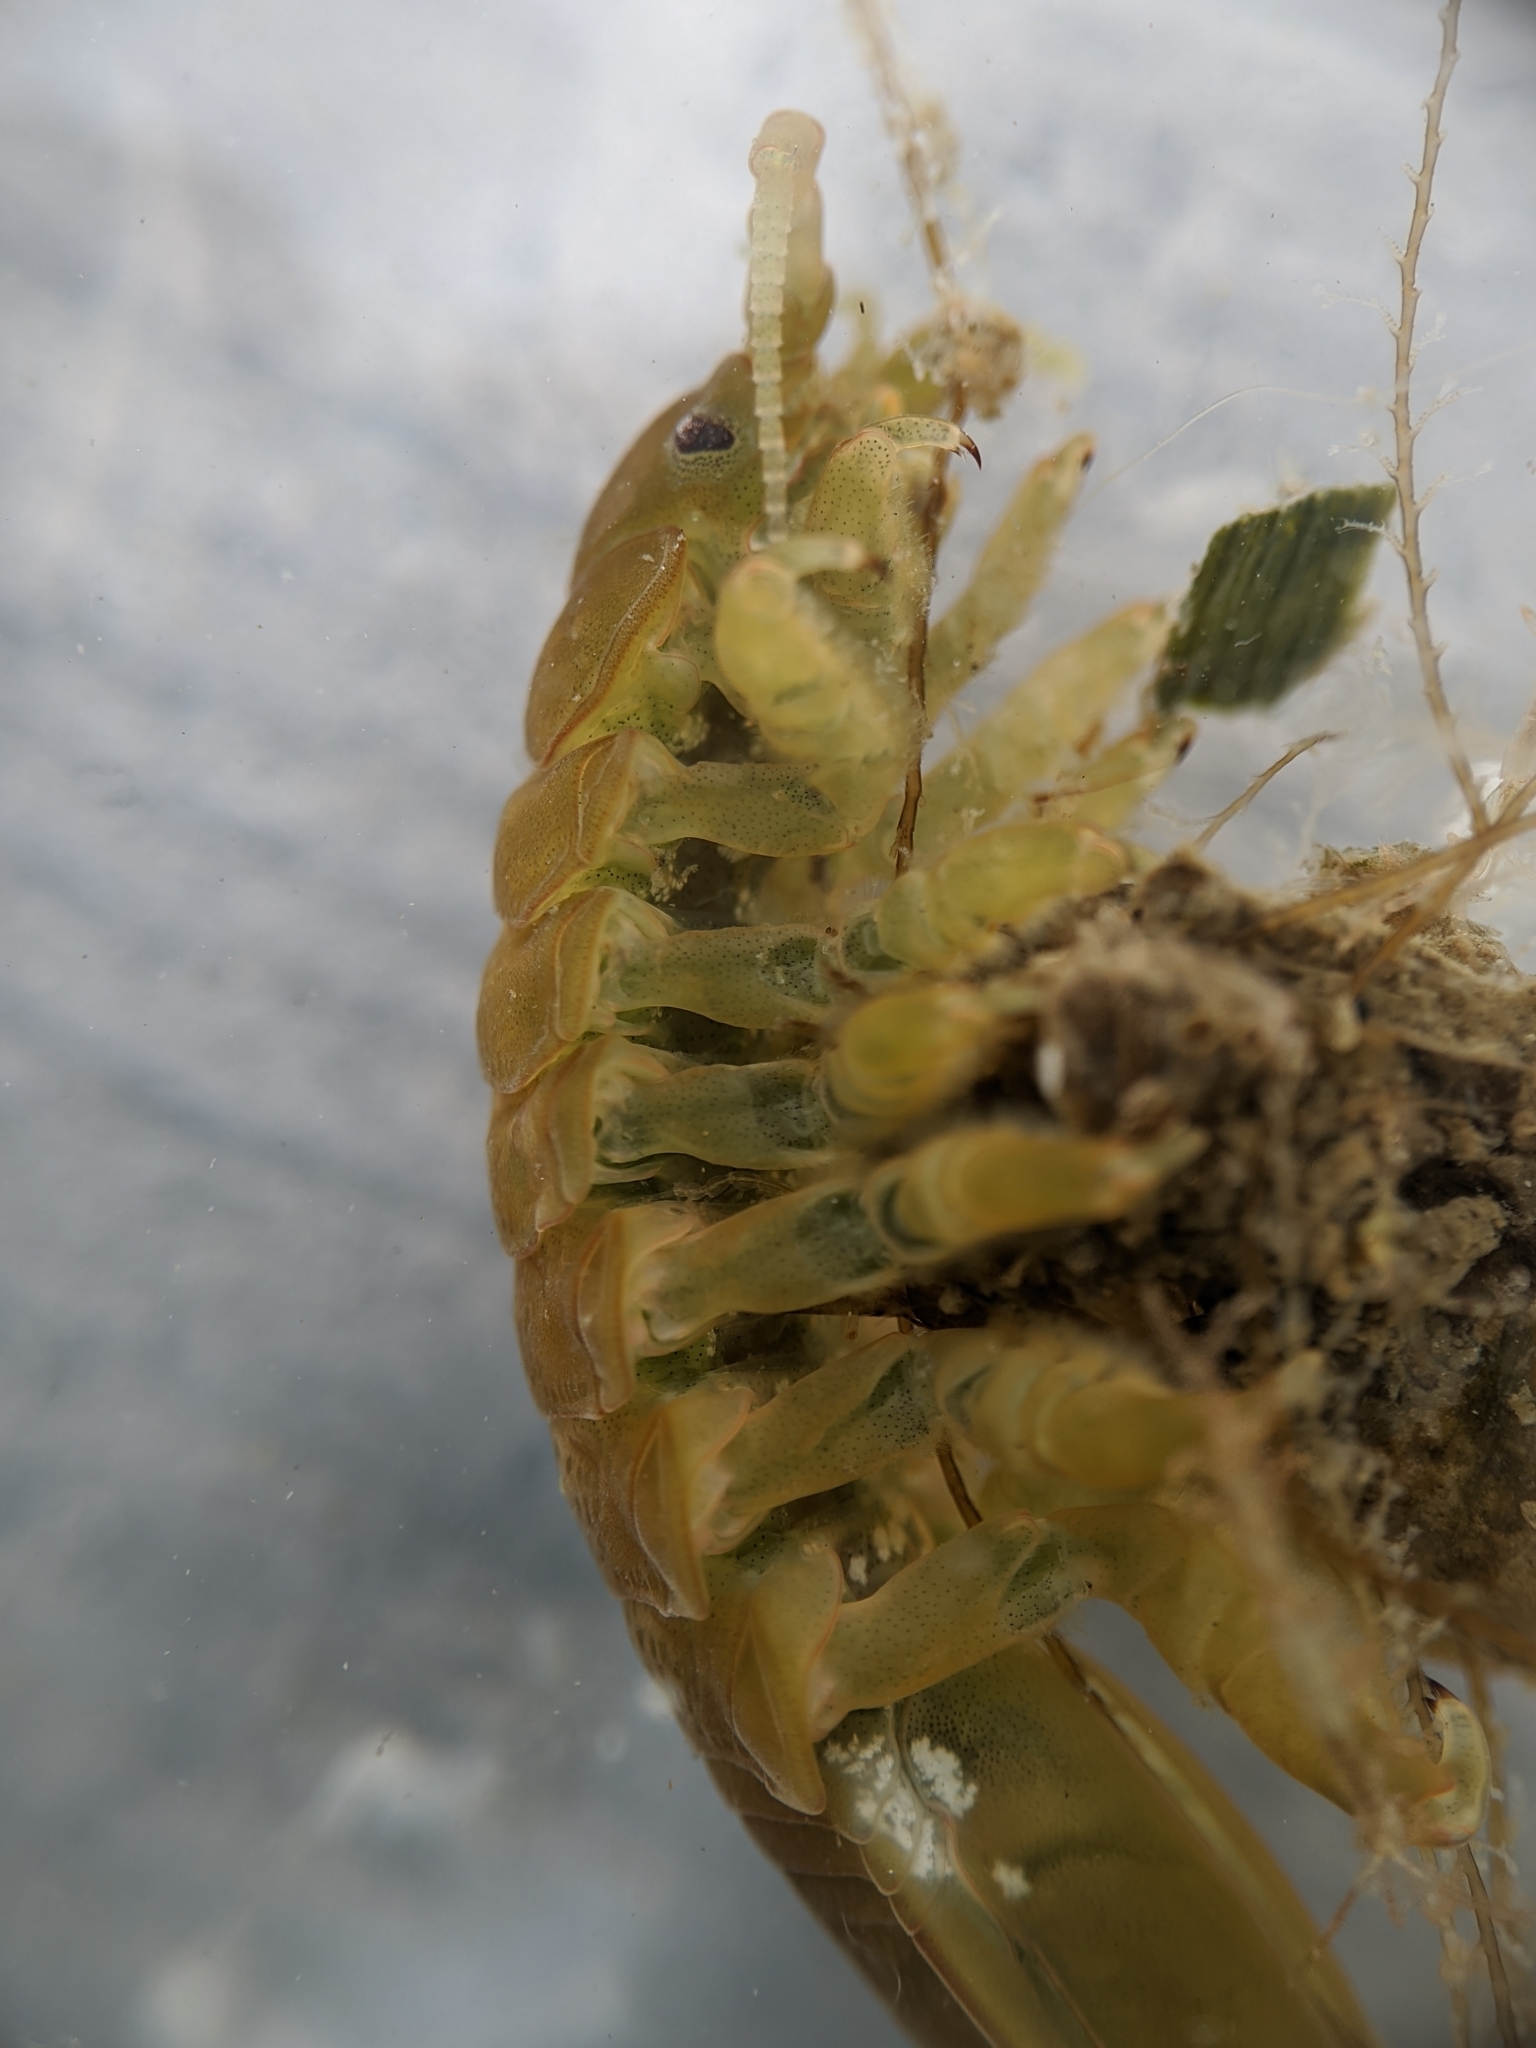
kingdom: Animalia
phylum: Arthropoda
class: Malacostraca
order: Isopoda
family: Idoteidae
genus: Pentidotea
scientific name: Pentidotea wosnesenskii
